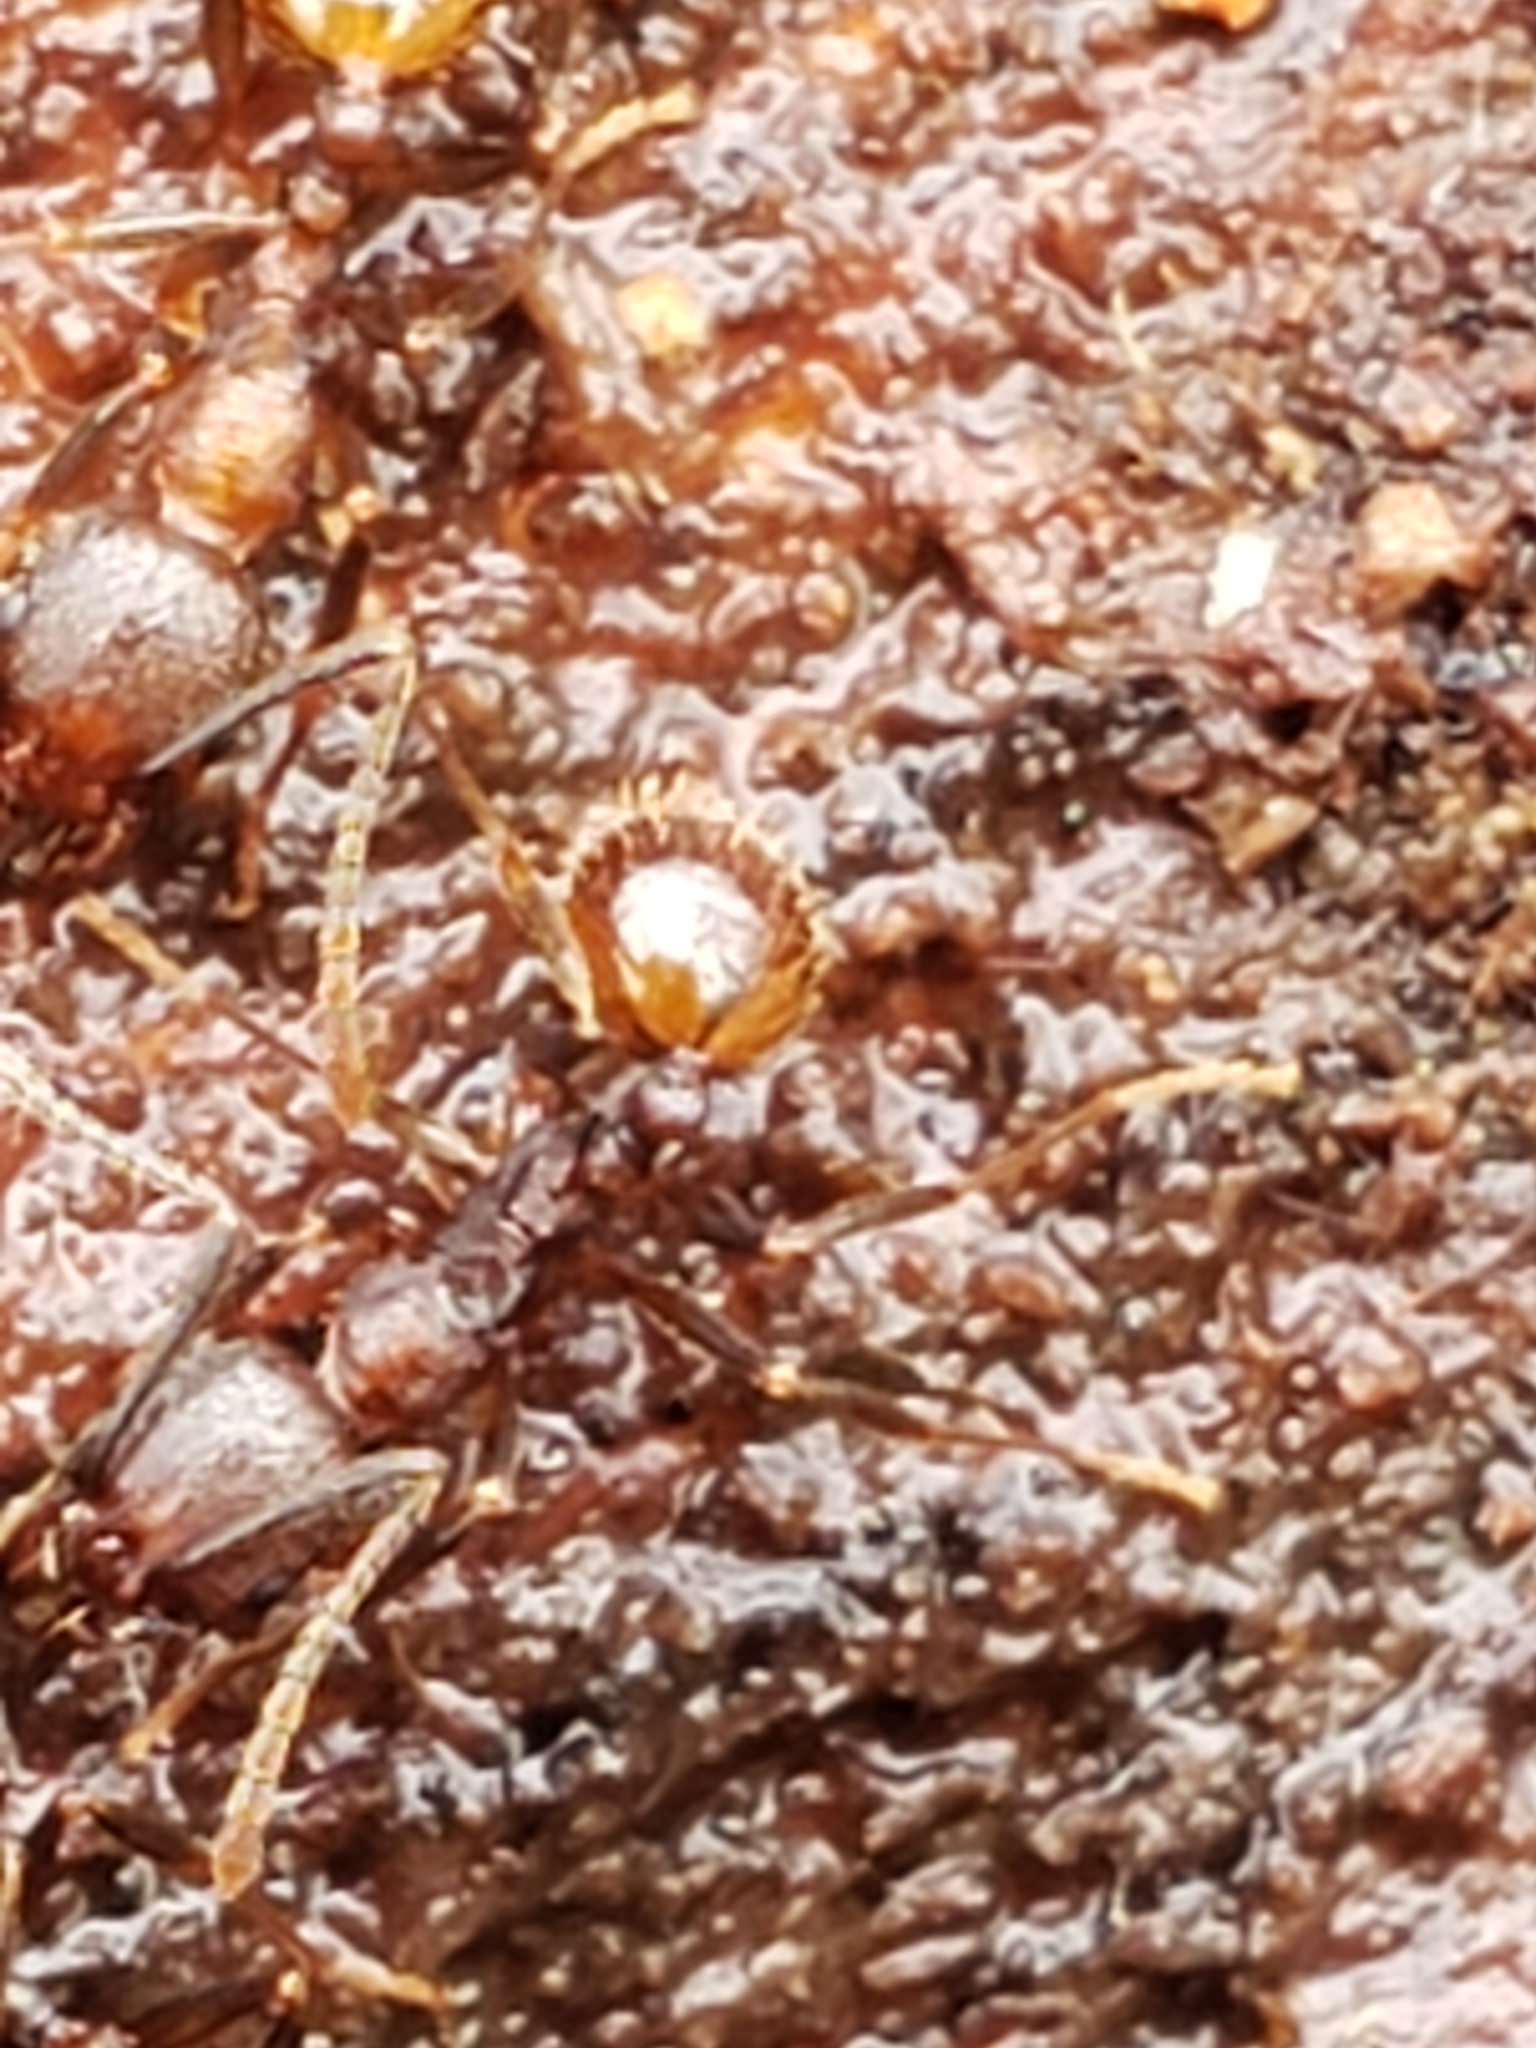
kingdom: Animalia
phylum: Arthropoda
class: Insecta
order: Hymenoptera
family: Formicidae
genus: Aphaenogaster
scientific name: Aphaenogaster fulva
